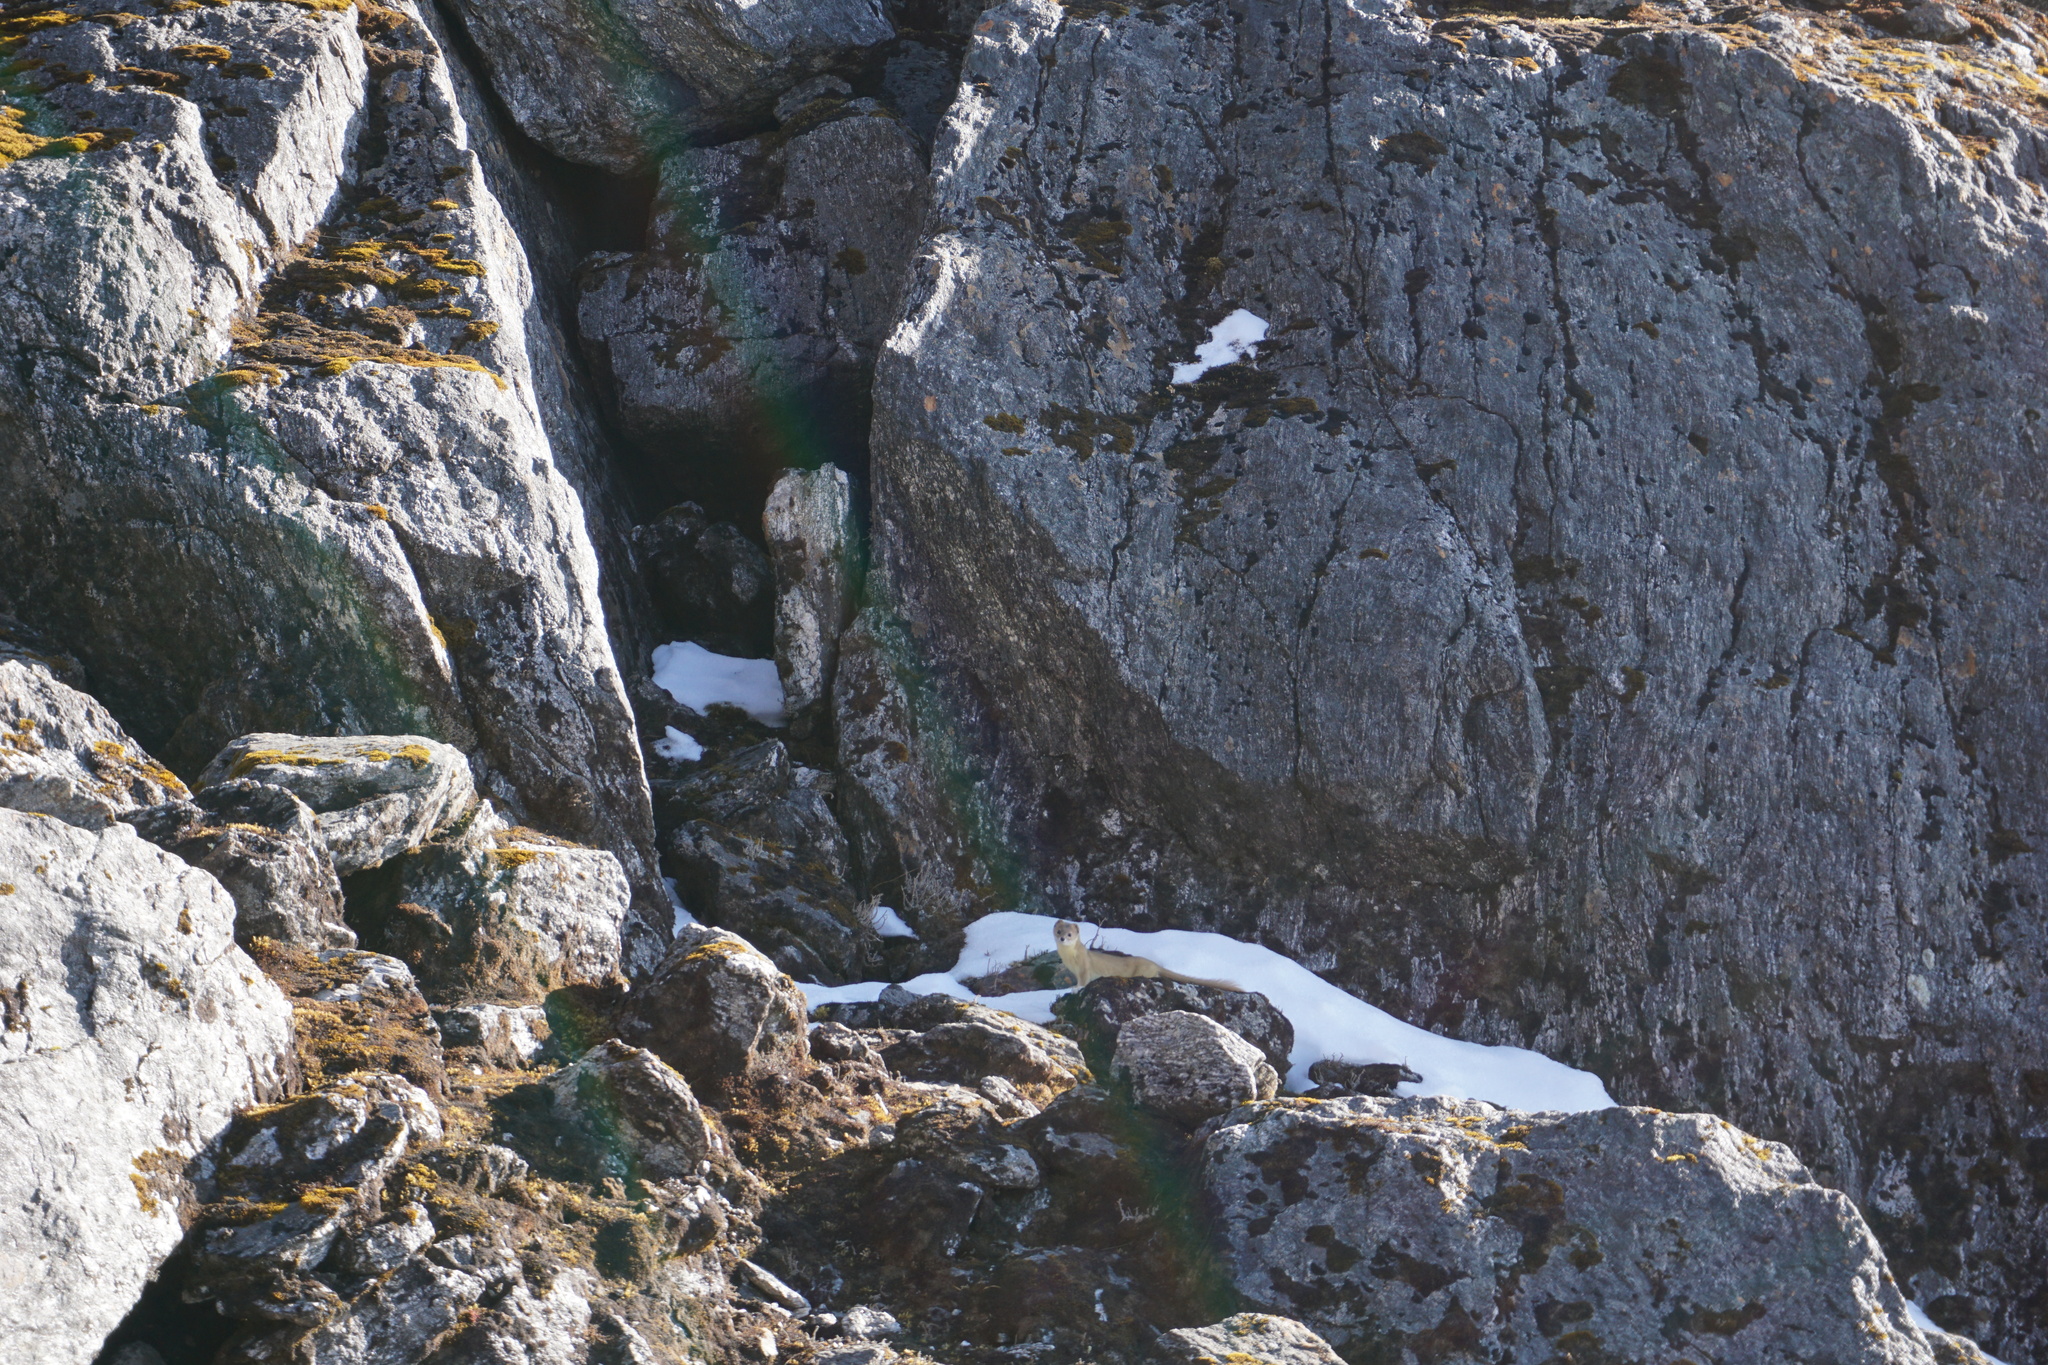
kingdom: Animalia
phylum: Chordata
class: Mammalia
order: Carnivora
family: Mustelidae
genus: Mustela
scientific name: Mustela altaica
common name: Mountain weasel
